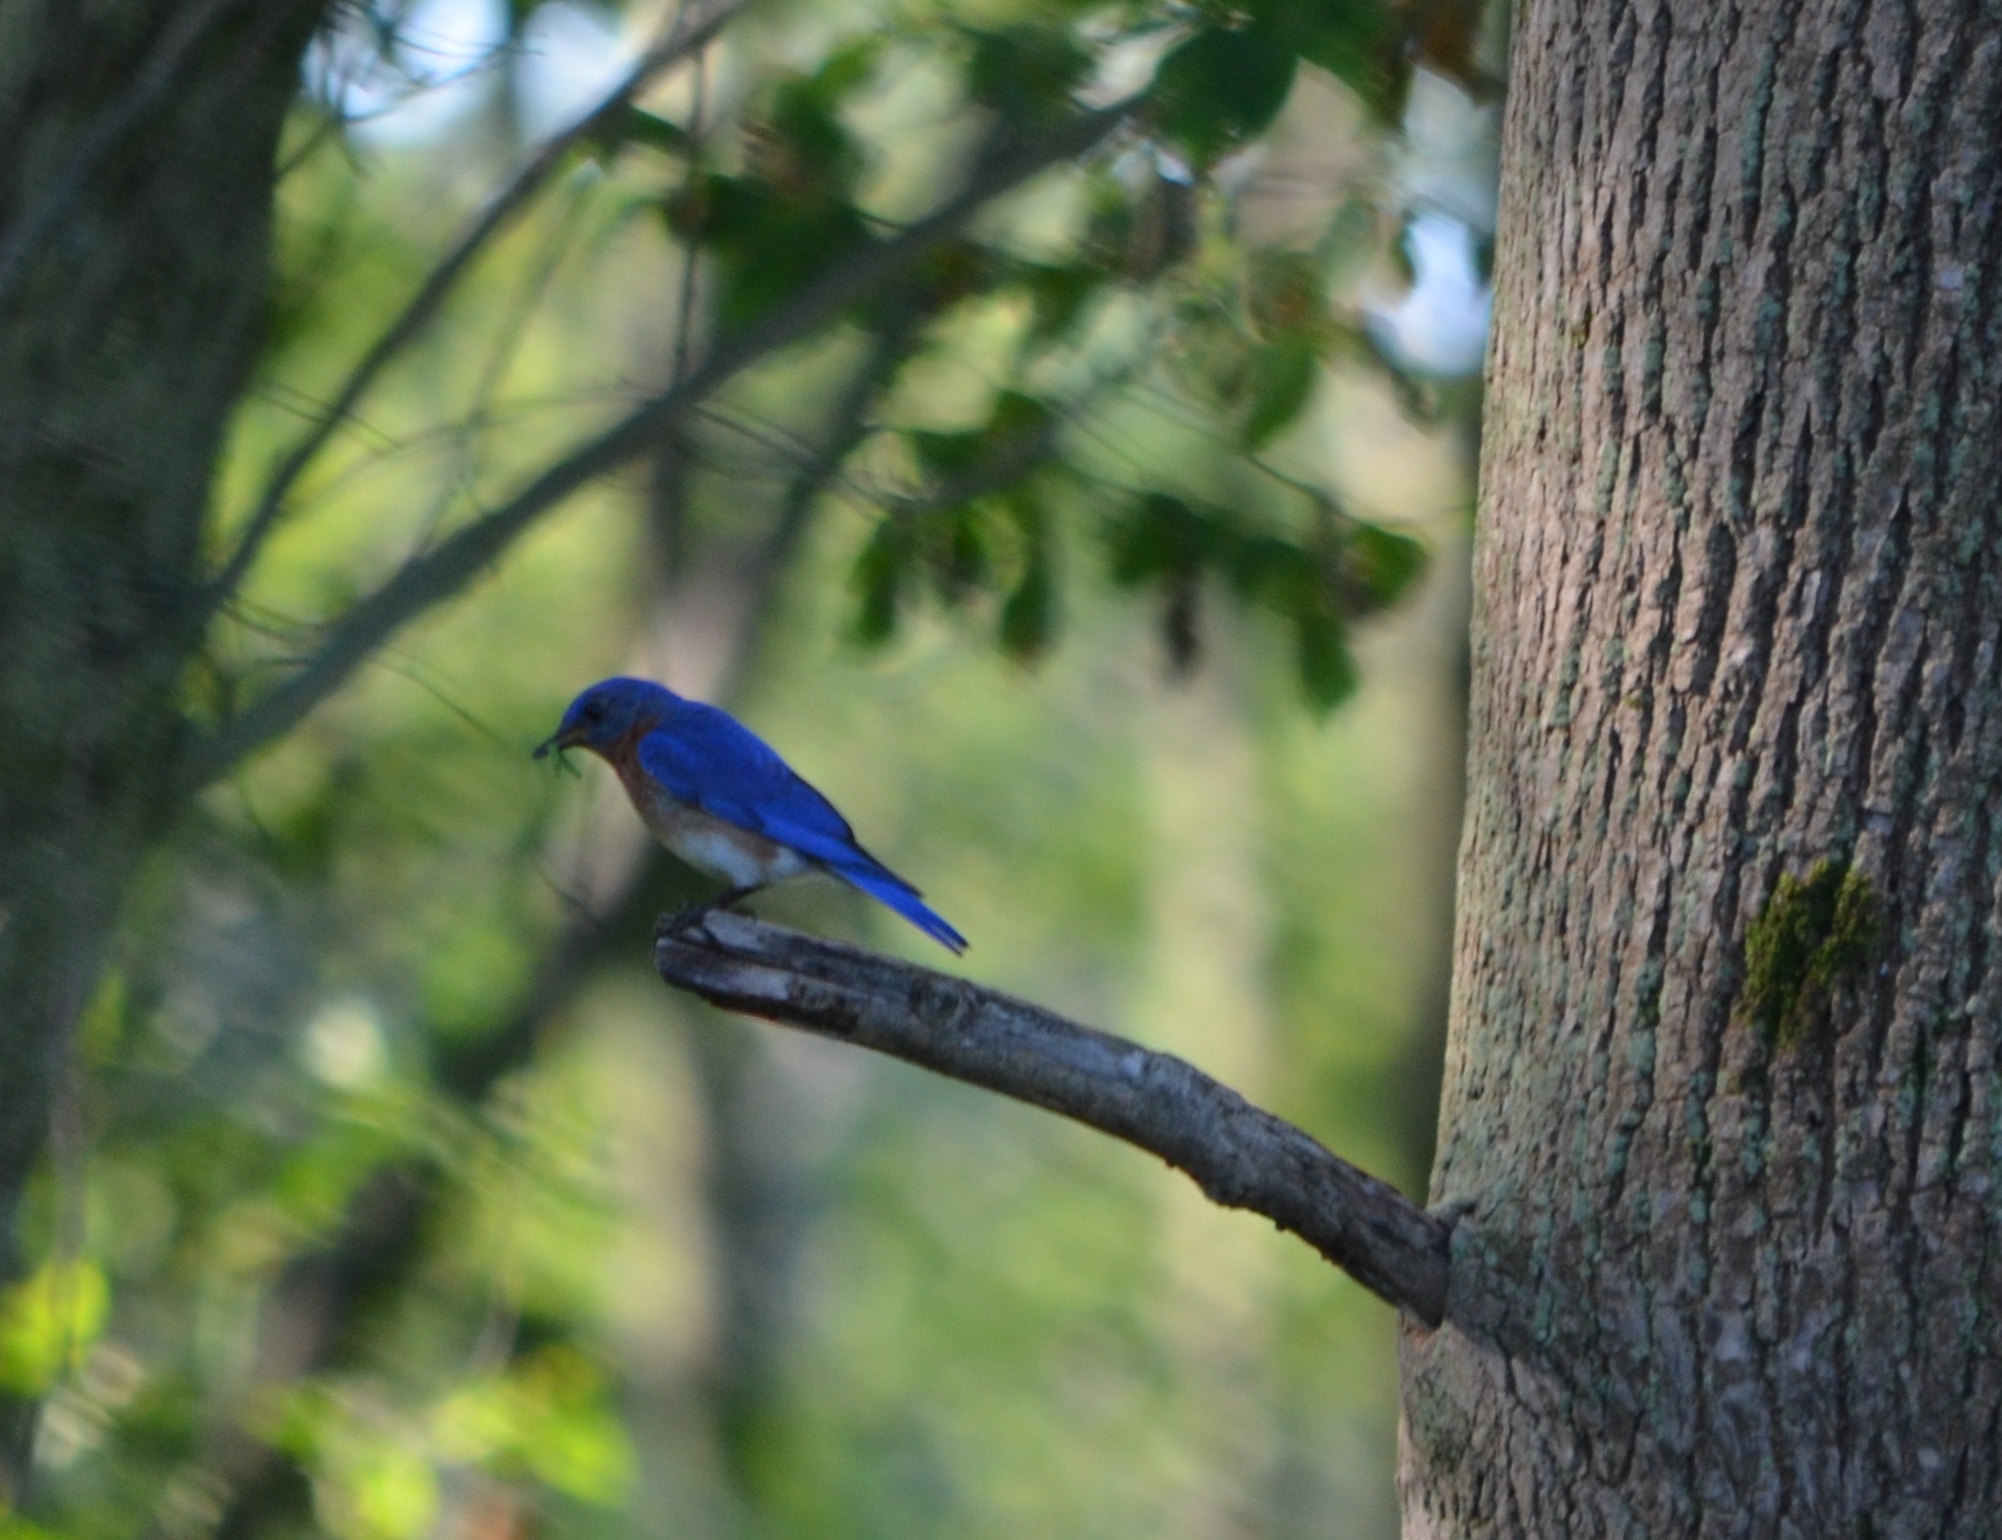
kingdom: Animalia
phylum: Chordata
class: Aves
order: Passeriformes
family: Turdidae
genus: Sialia
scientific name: Sialia sialis
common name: Eastern bluebird
